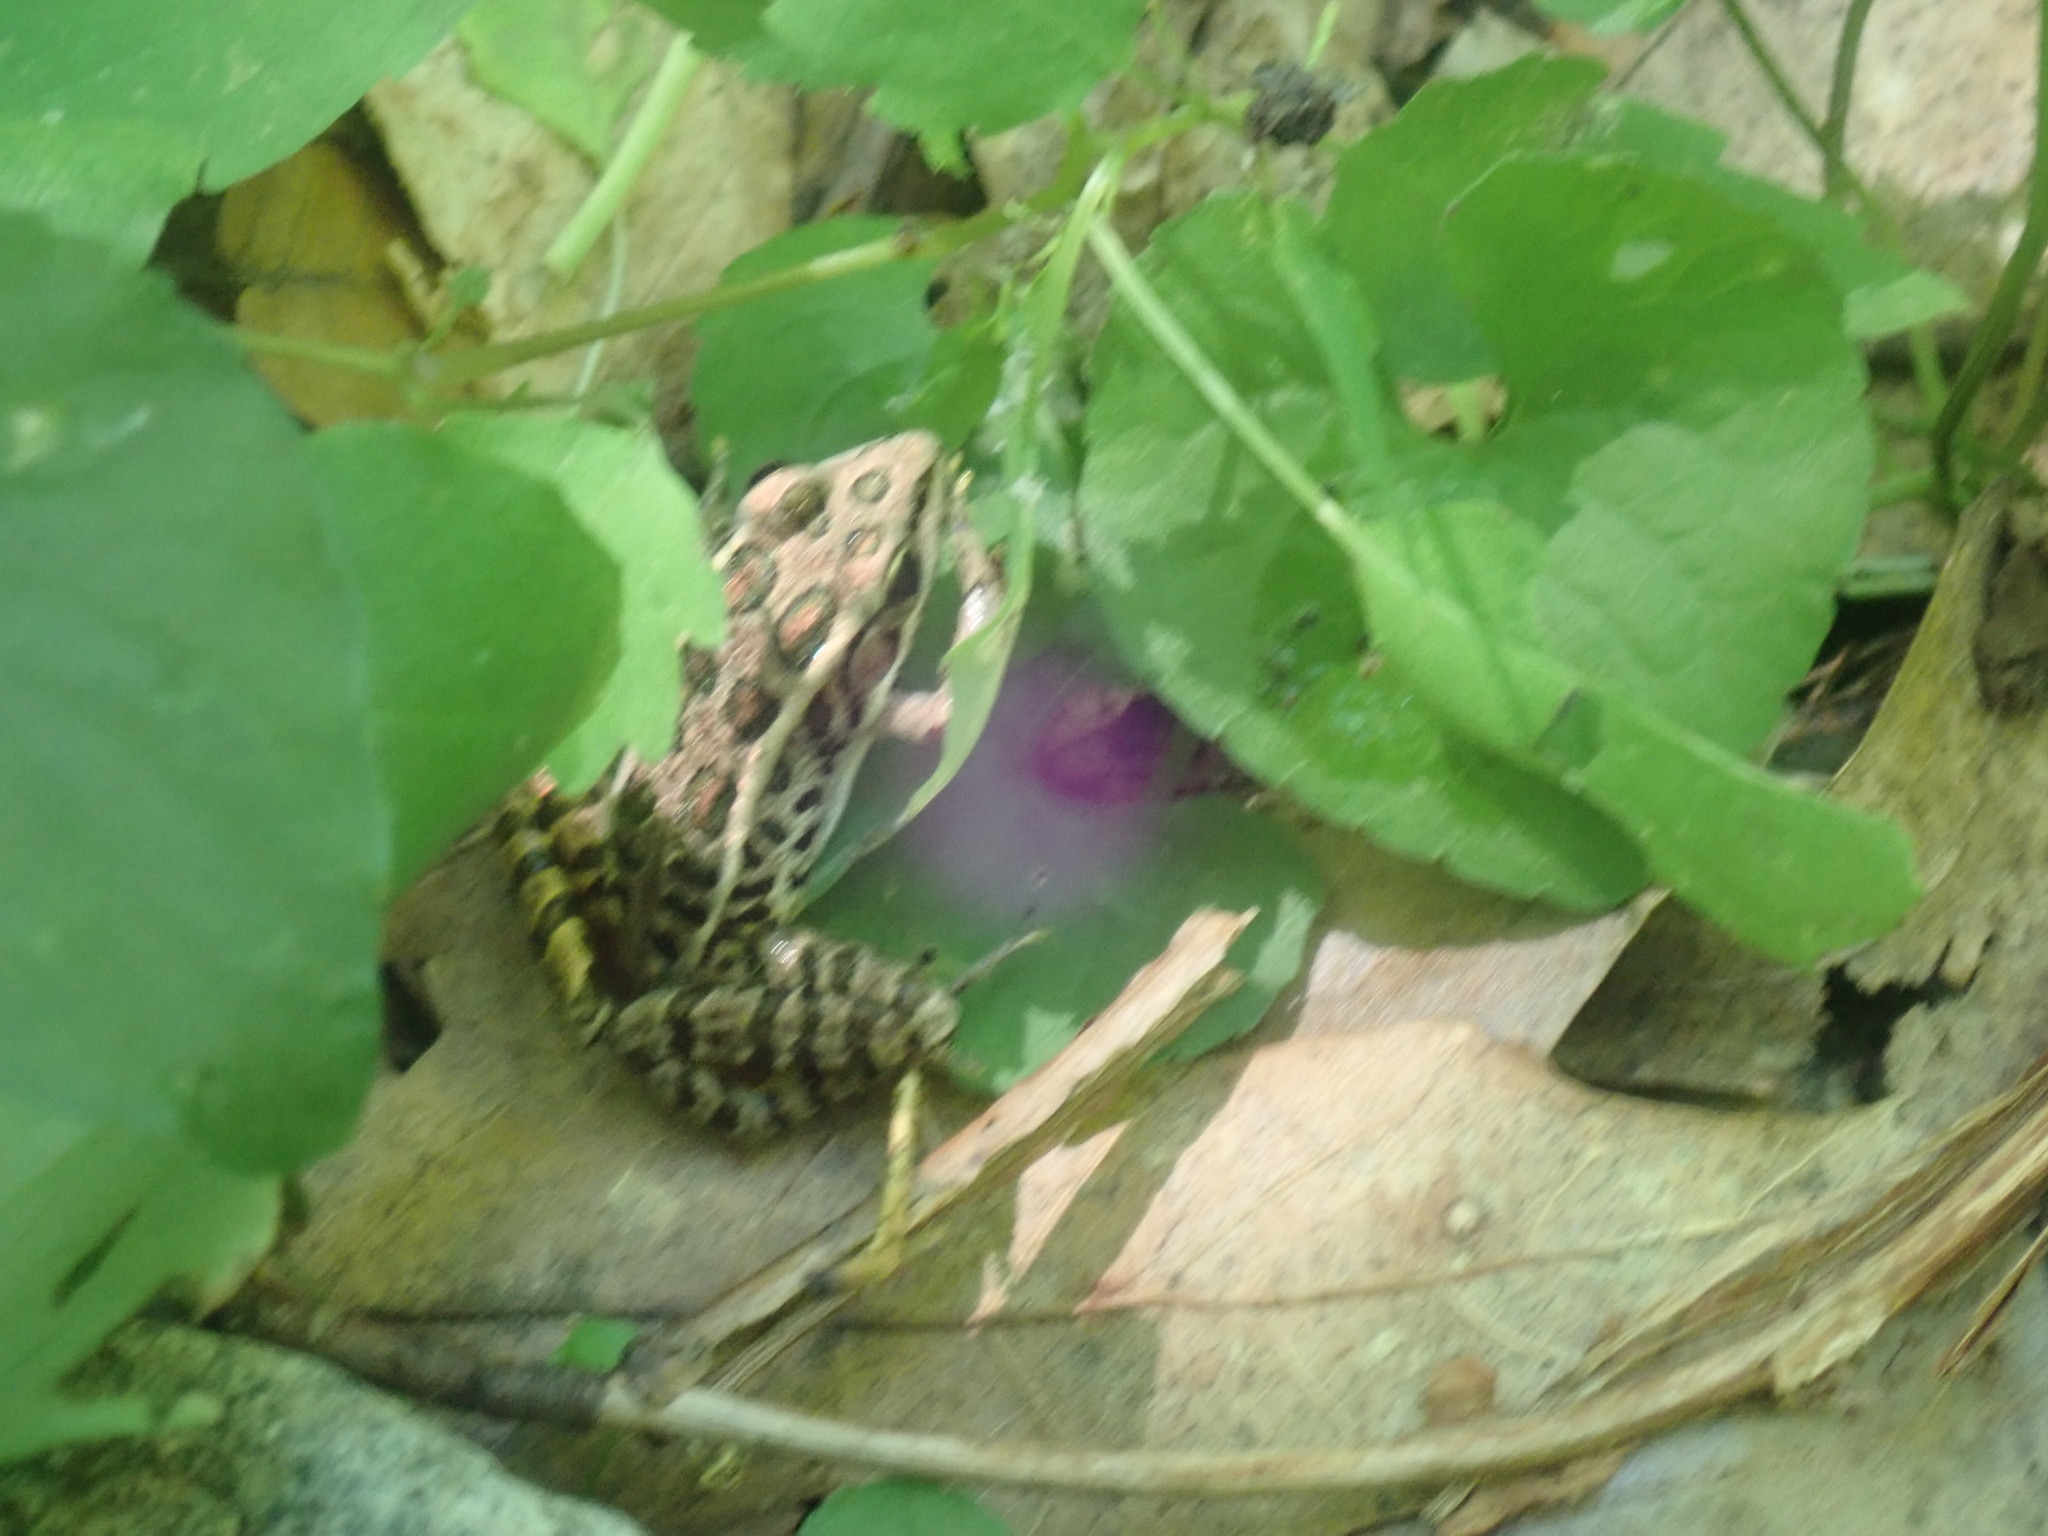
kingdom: Animalia
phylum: Chordata
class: Amphibia
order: Anura
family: Ranidae
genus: Lithobates
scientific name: Lithobates palustris
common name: Pickerel frog
